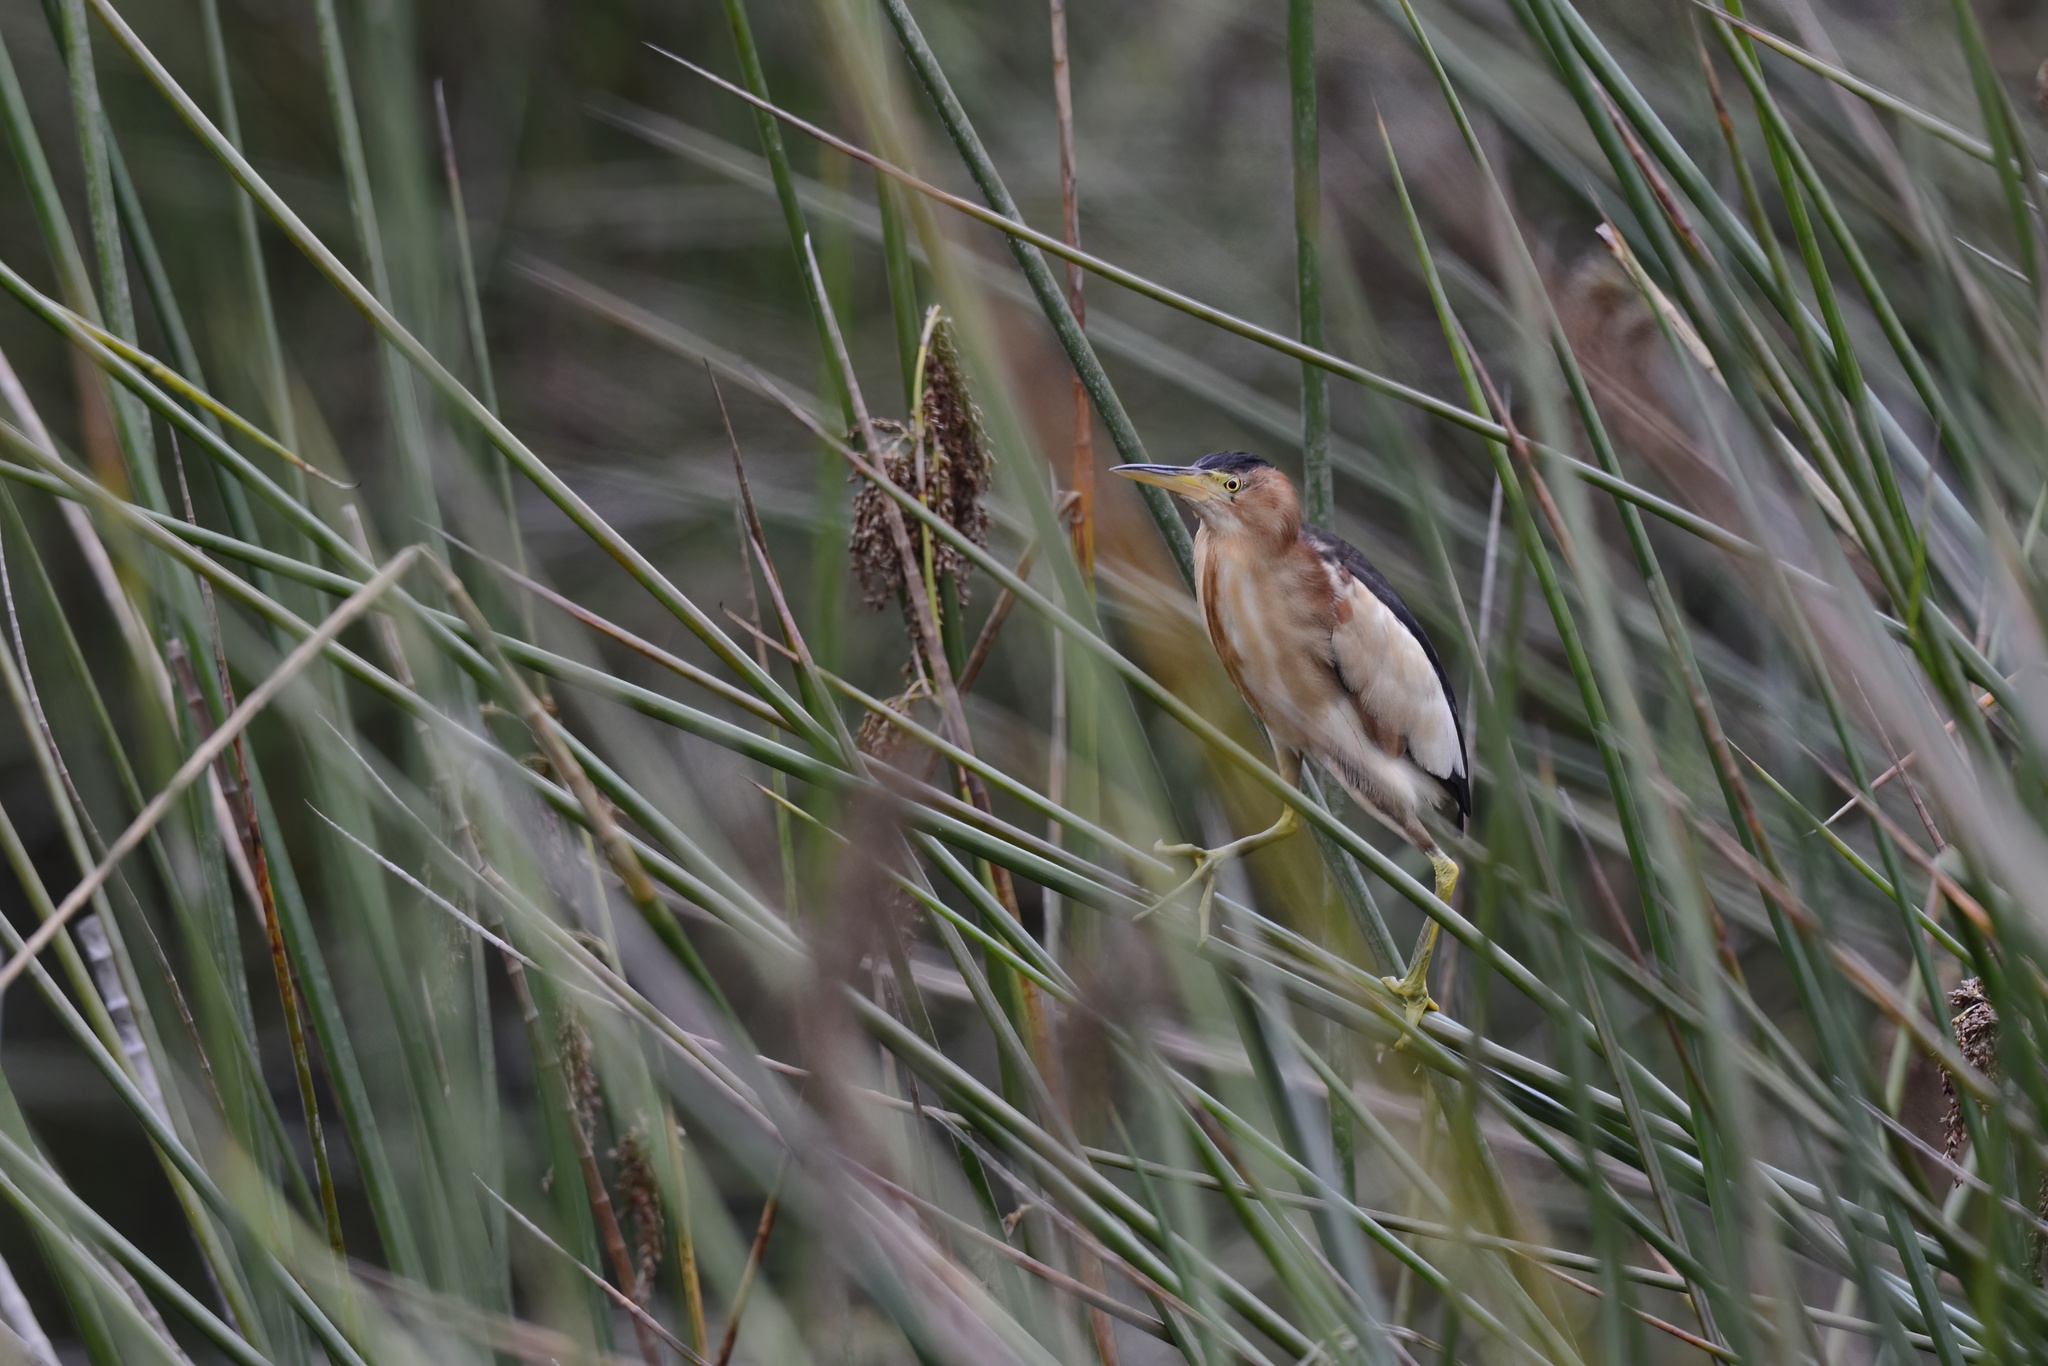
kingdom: Animalia
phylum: Chordata
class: Aves
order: Pelecaniformes
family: Ardeidae
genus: Ixobrychus
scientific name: Ixobrychus dubius
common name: Black-backed bittern
